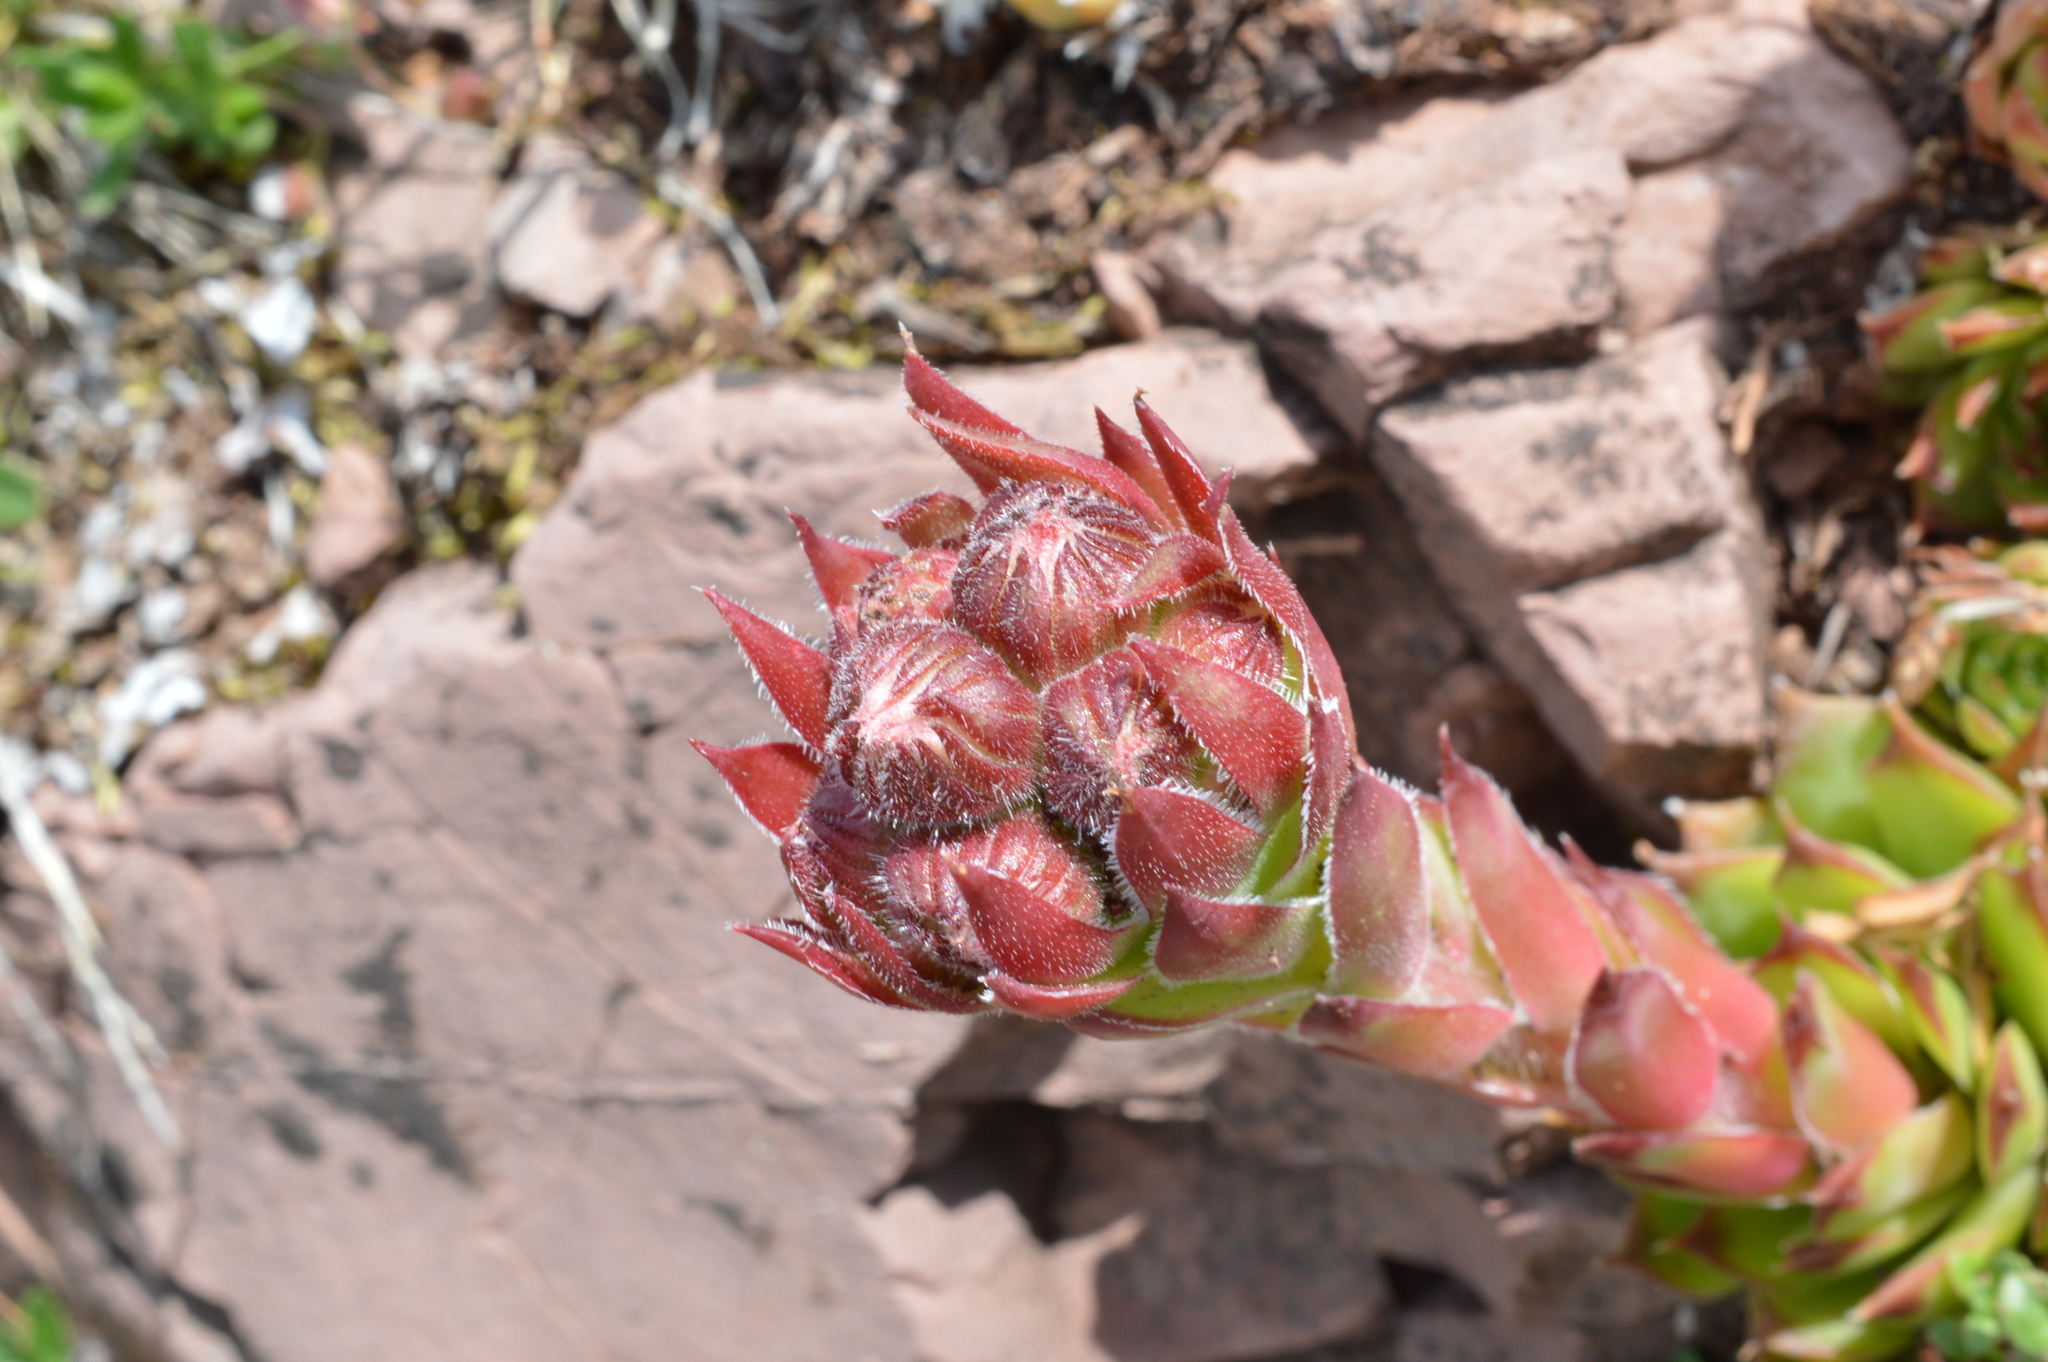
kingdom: Plantae
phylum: Tracheophyta
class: Magnoliopsida
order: Saxifragales
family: Crassulaceae
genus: Sempervivum
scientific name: Sempervivum tectorum
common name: House-leek
